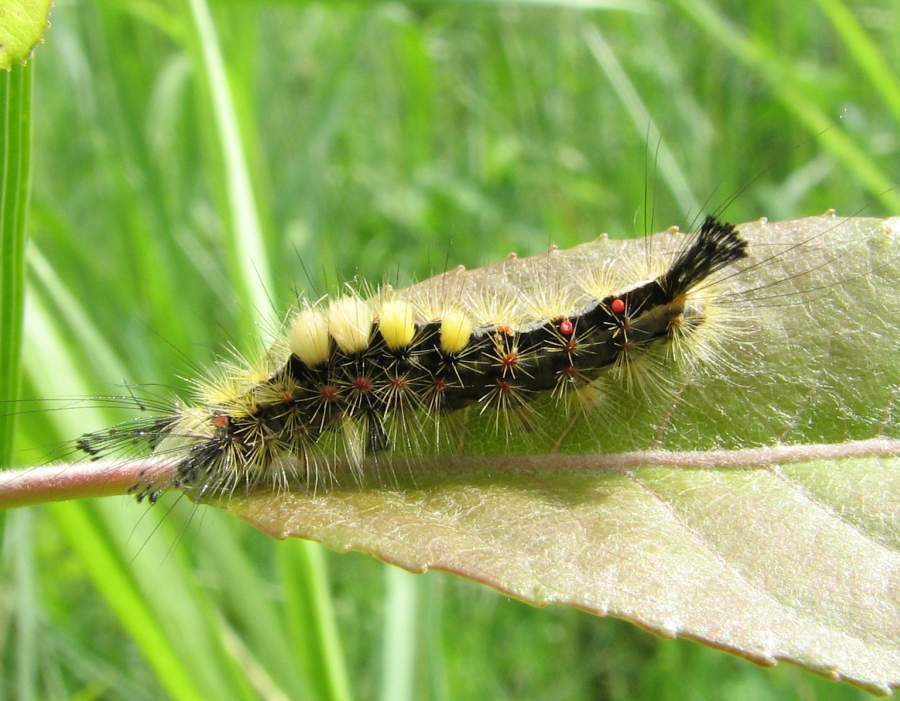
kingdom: Animalia
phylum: Arthropoda
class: Insecta
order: Lepidoptera
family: Erebidae
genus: Orgyia
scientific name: Orgyia antiqua
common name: Vapourer
